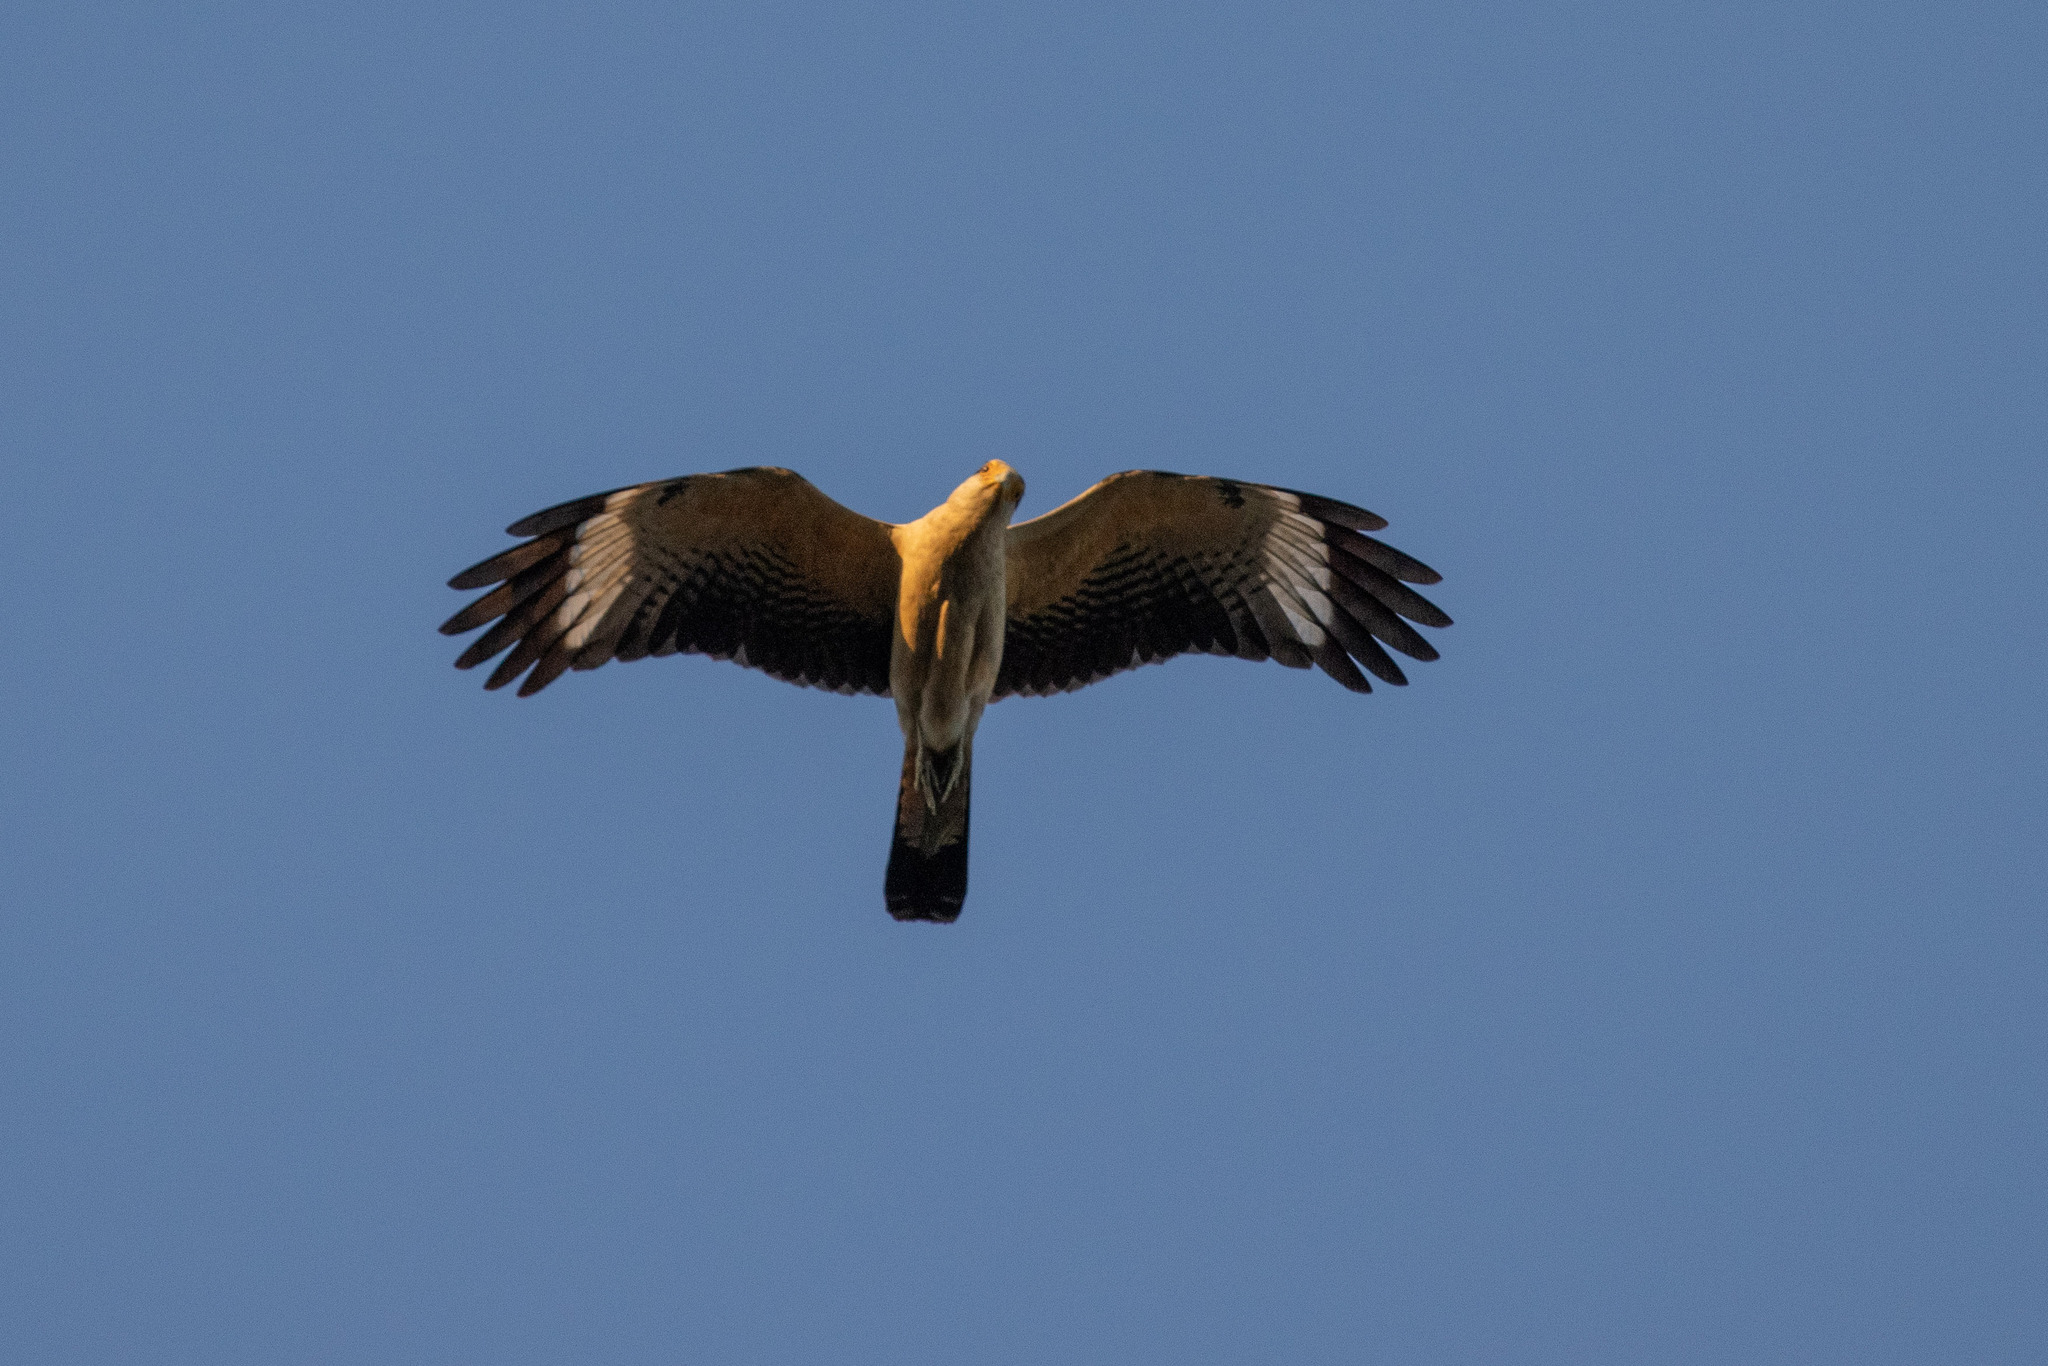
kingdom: Animalia
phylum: Chordata
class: Aves
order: Falconiformes
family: Falconidae
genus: Daptrius
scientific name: Daptrius
